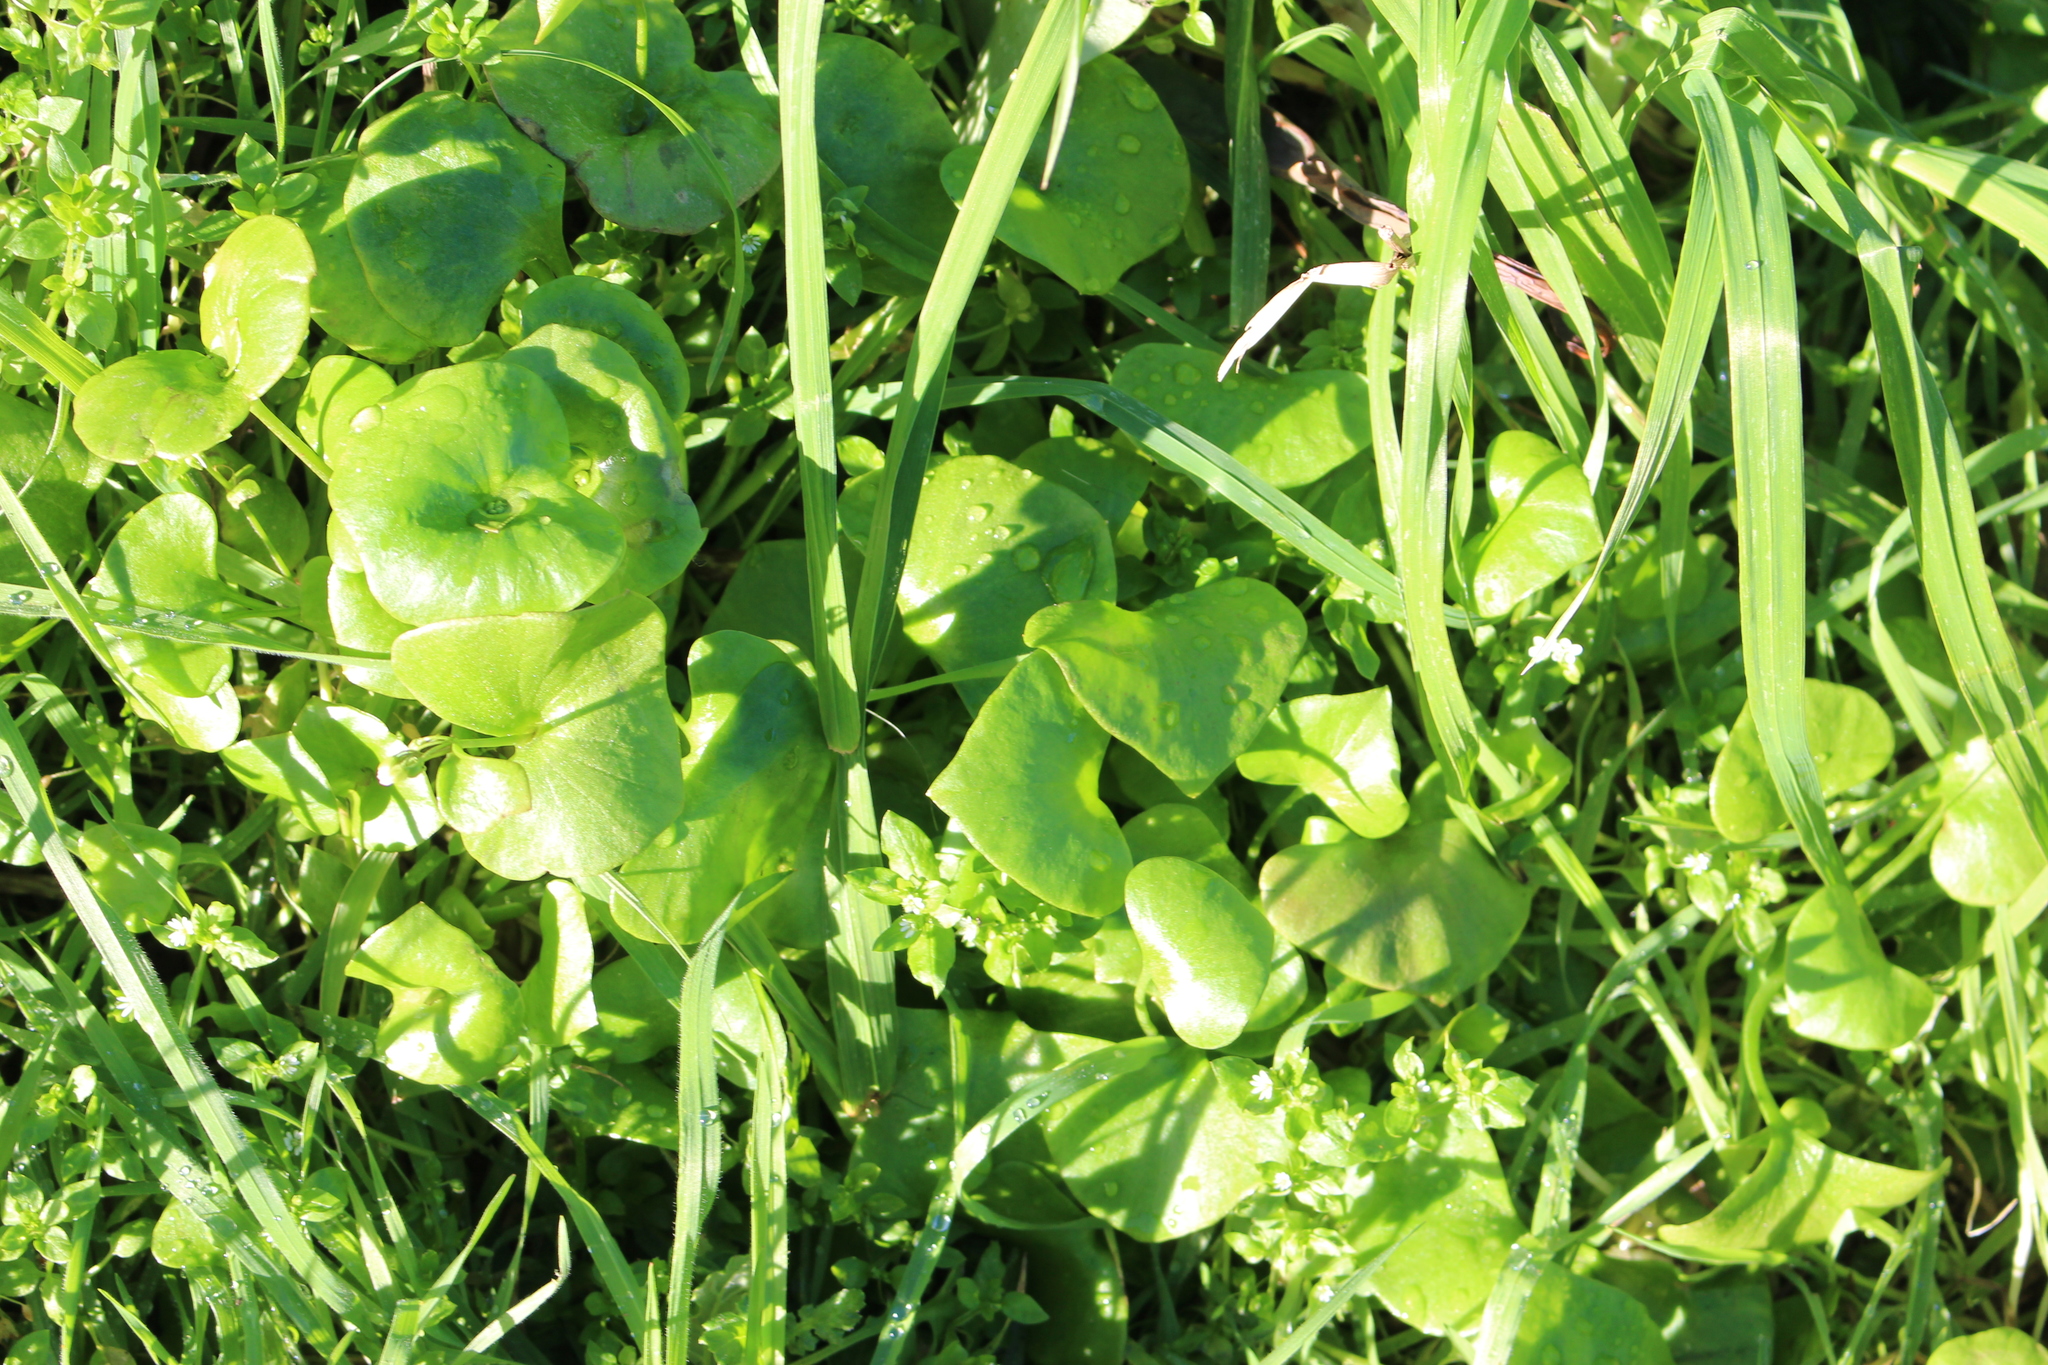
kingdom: Plantae
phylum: Tracheophyta
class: Magnoliopsida
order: Caryophyllales
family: Montiaceae
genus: Claytonia
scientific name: Claytonia perfoliata
